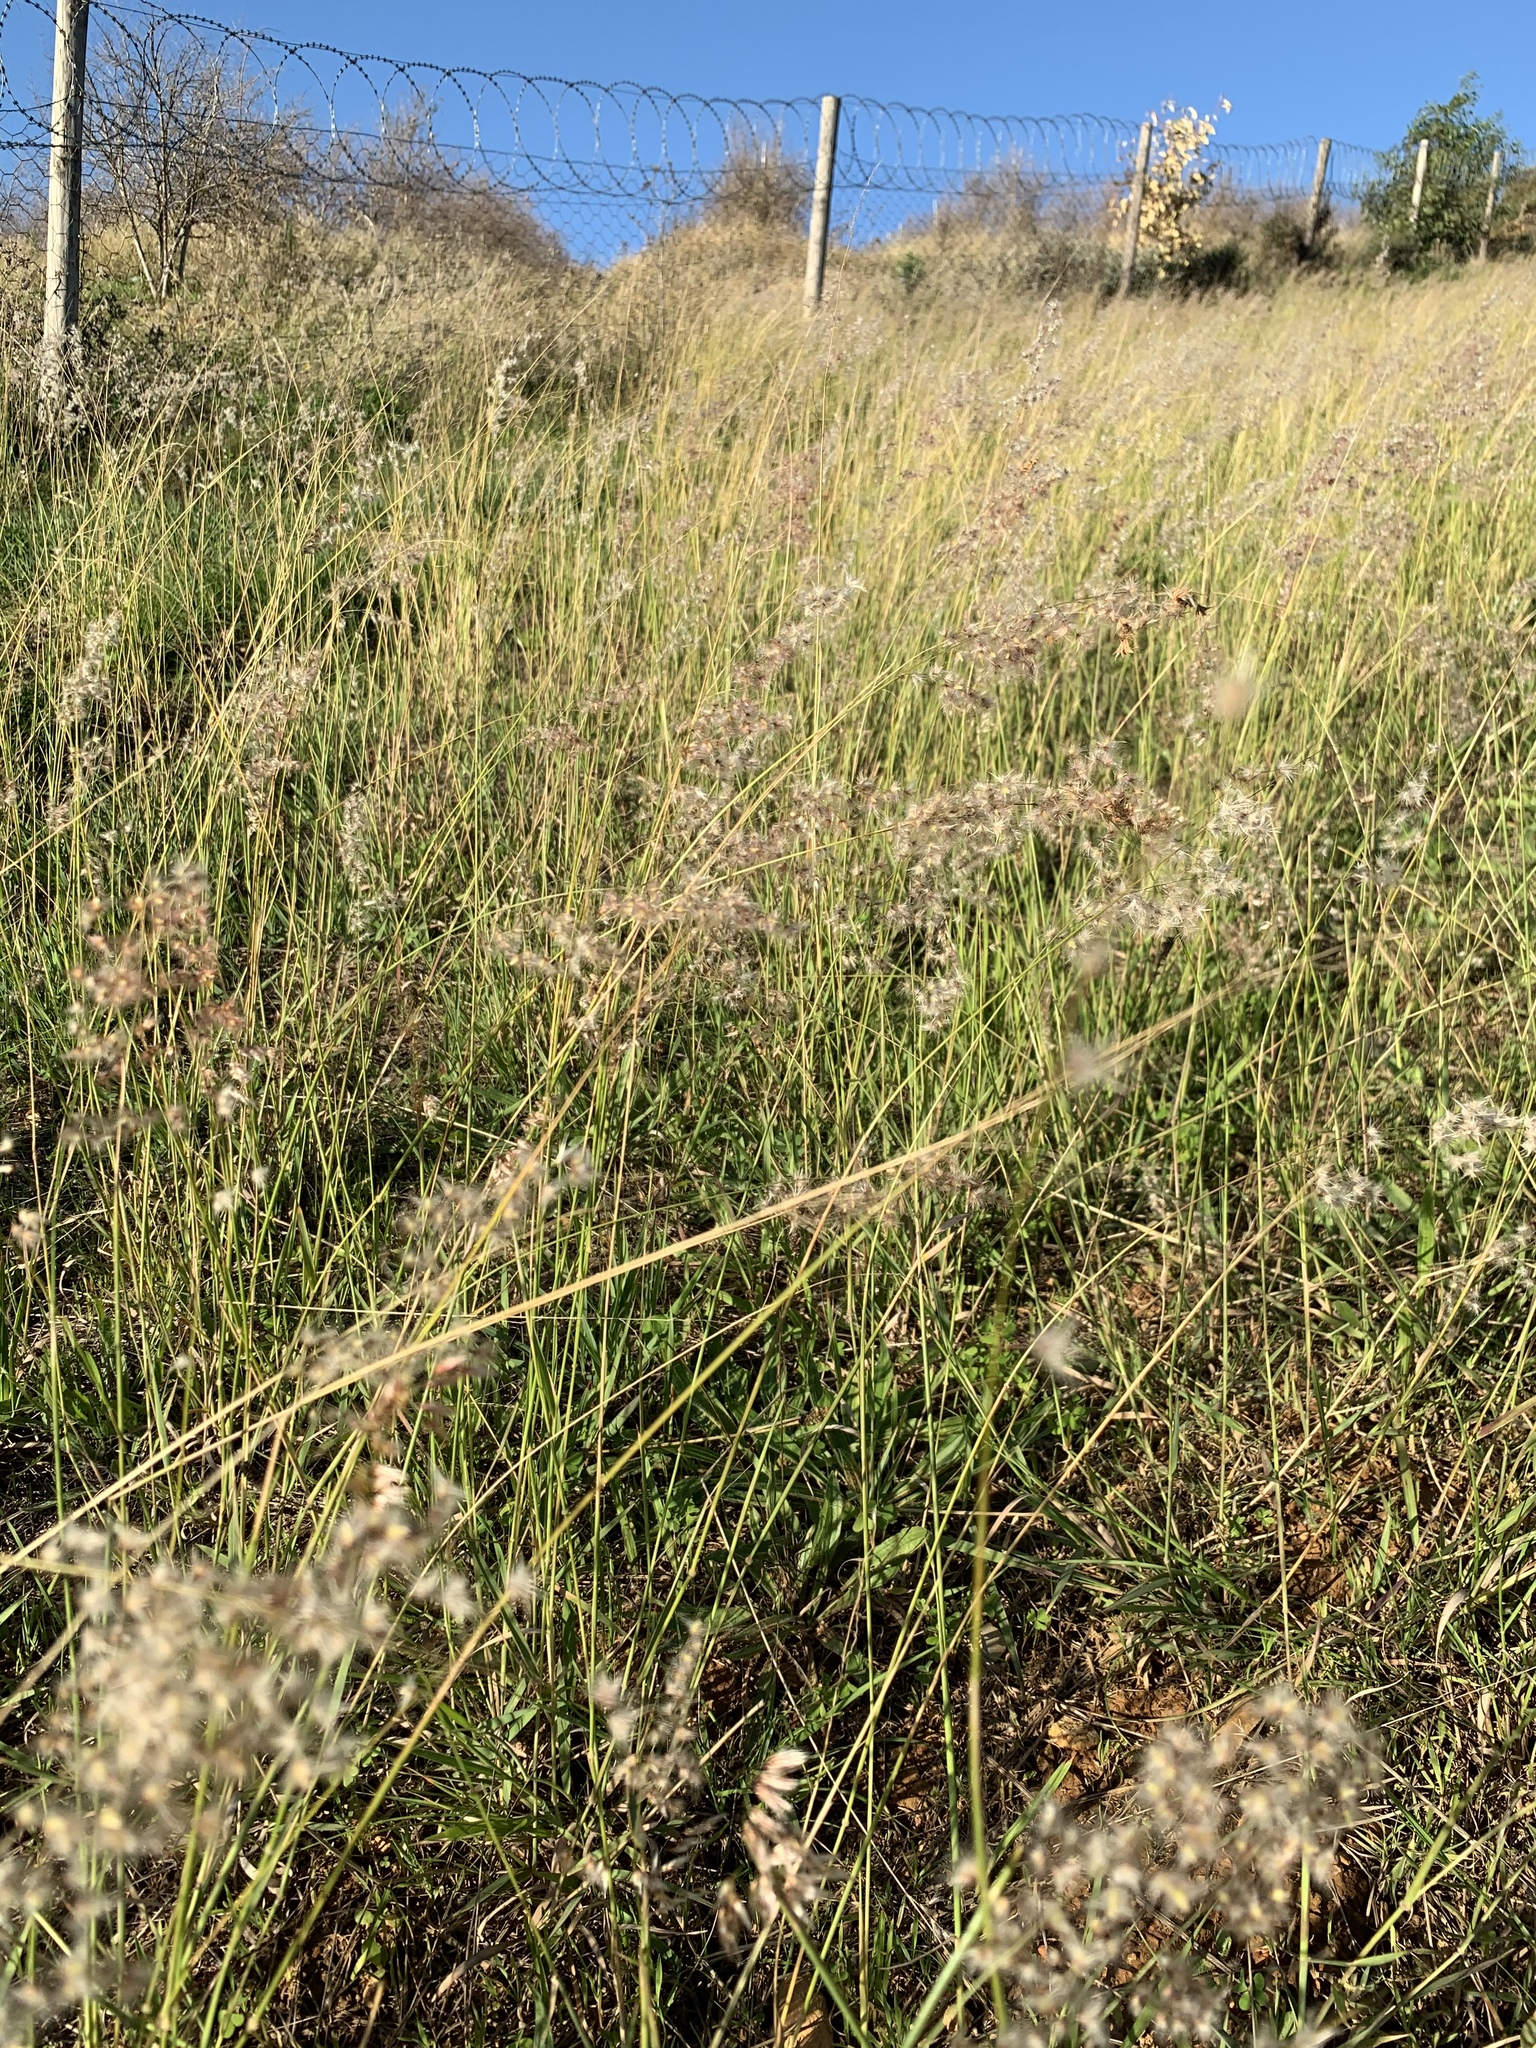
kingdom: Plantae
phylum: Tracheophyta
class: Liliopsida
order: Poales
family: Poaceae
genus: Melinis
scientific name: Melinis repens
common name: Rose natal grass
